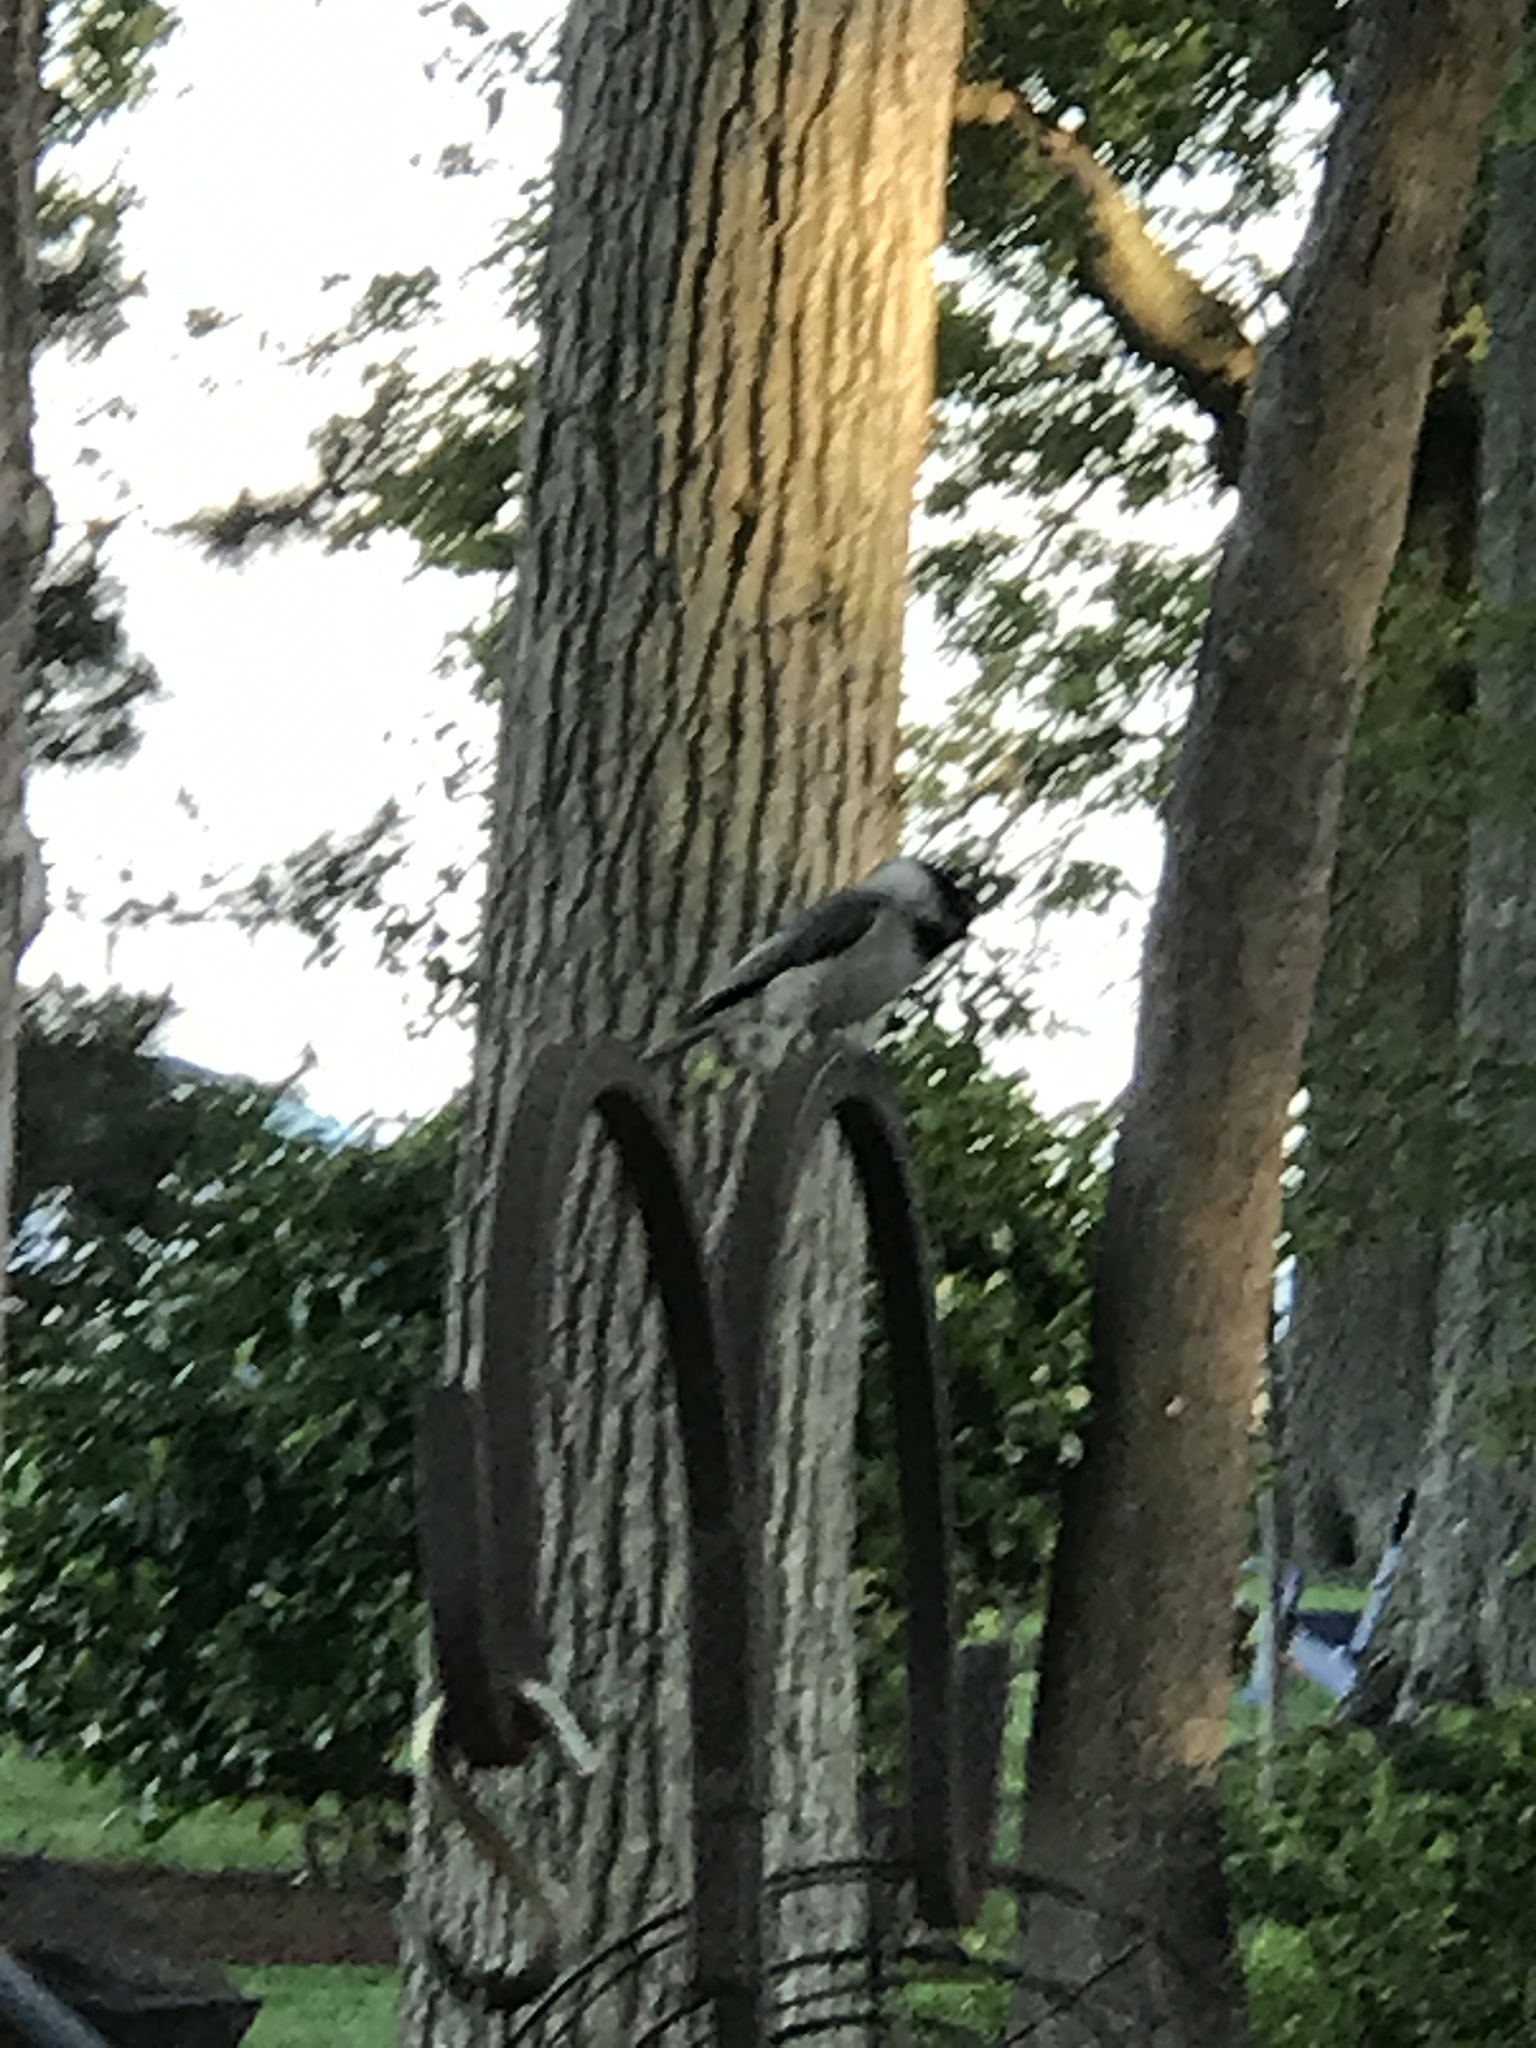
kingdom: Animalia
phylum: Chordata
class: Aves
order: Passeriformes
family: Paridae
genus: Poecile
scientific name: Poecile carolinensis
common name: Carolina chickadee
